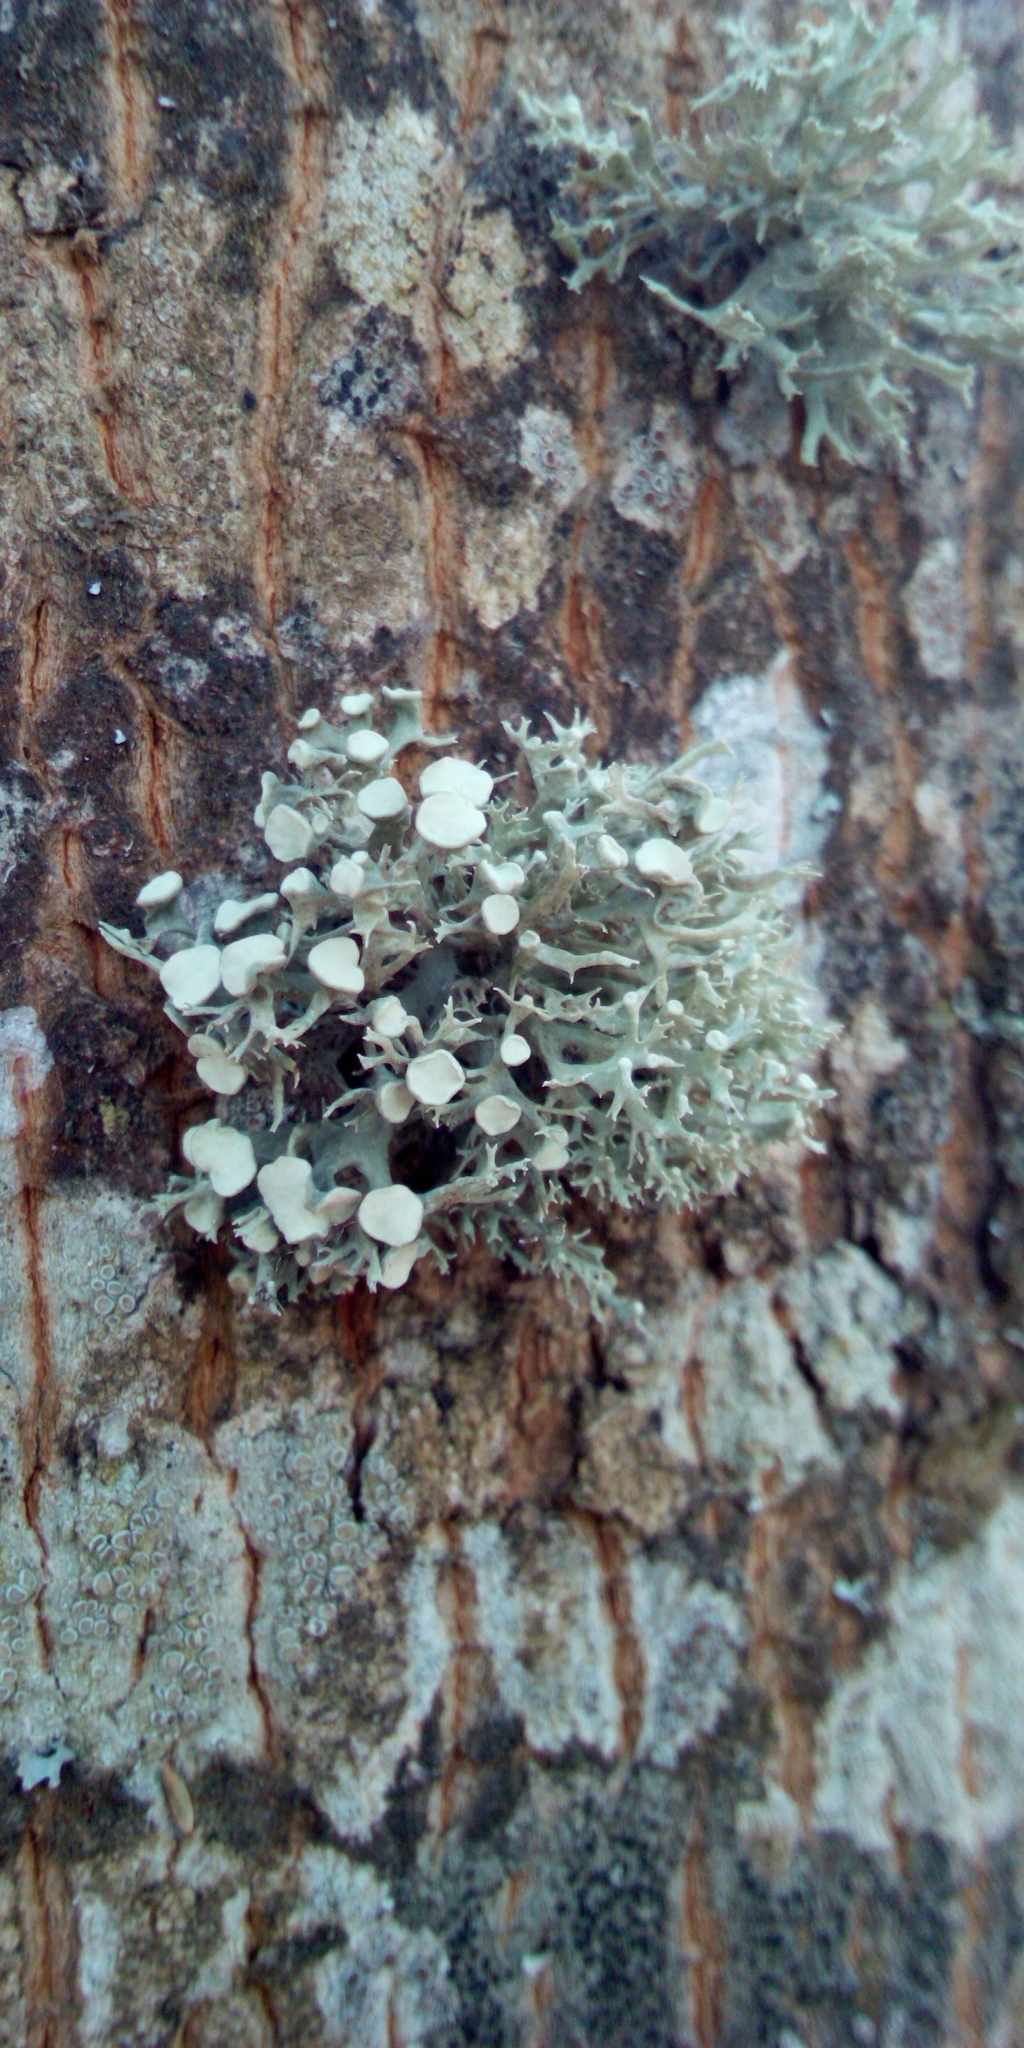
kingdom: Fungi
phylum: Ascomycota
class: Lecanoromycetes
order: Lecanorales
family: Ramalinaceae
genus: Ramalina
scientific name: Ramalina fastigiata
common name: Dotted ribbon lichen
